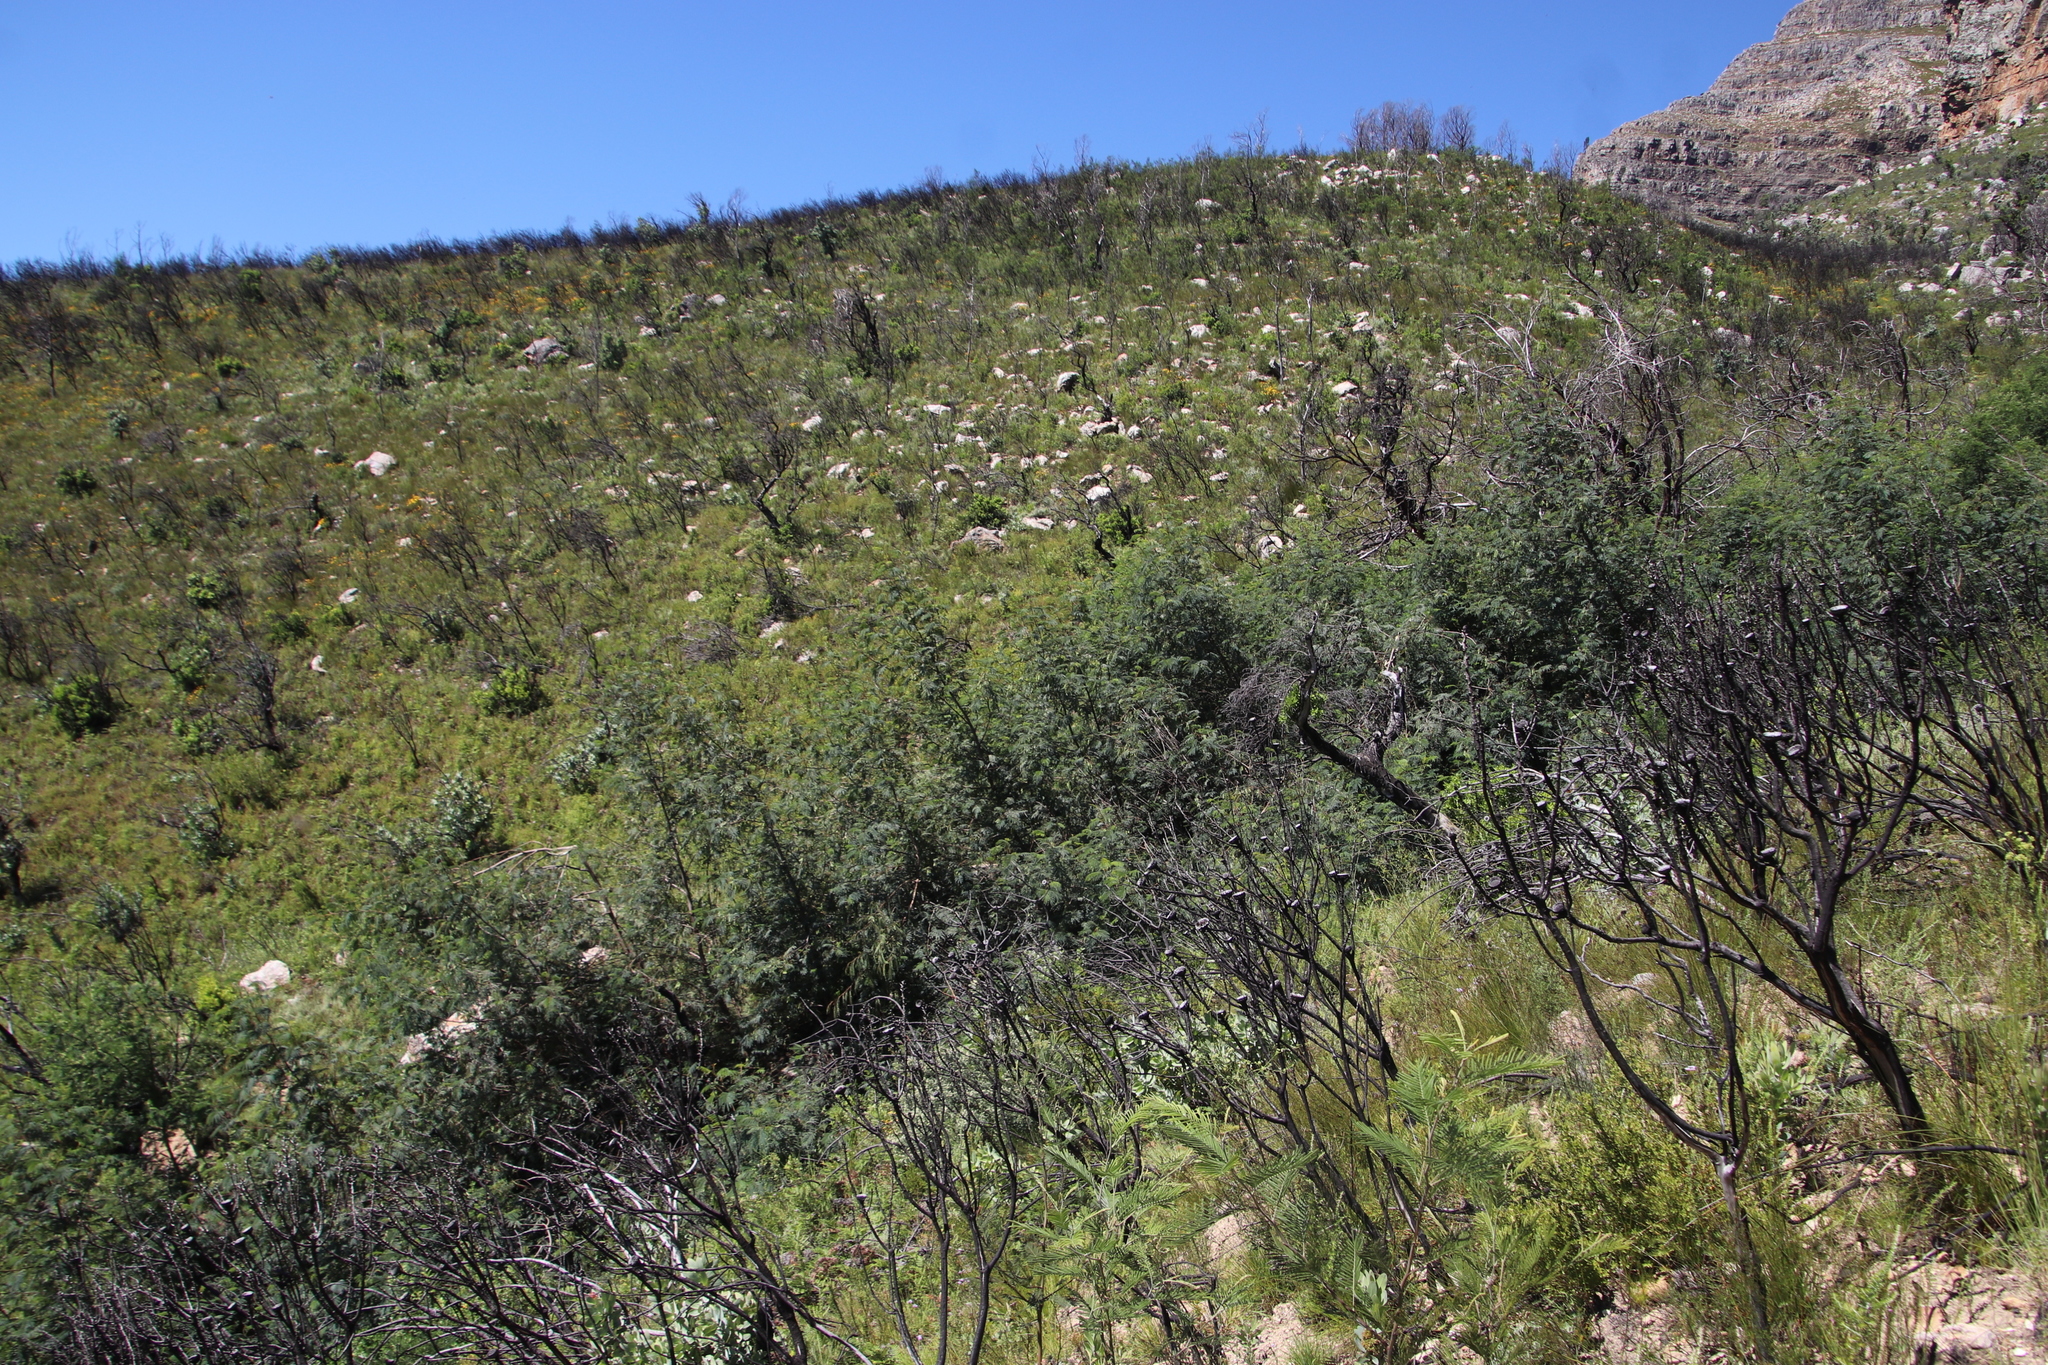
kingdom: Plantae
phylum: Tracheophyta
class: Magnoliopsida
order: Fabales
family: Fabaceae
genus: Paraserianthes
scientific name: Paraserianthes lophantha
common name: Plume albizia
